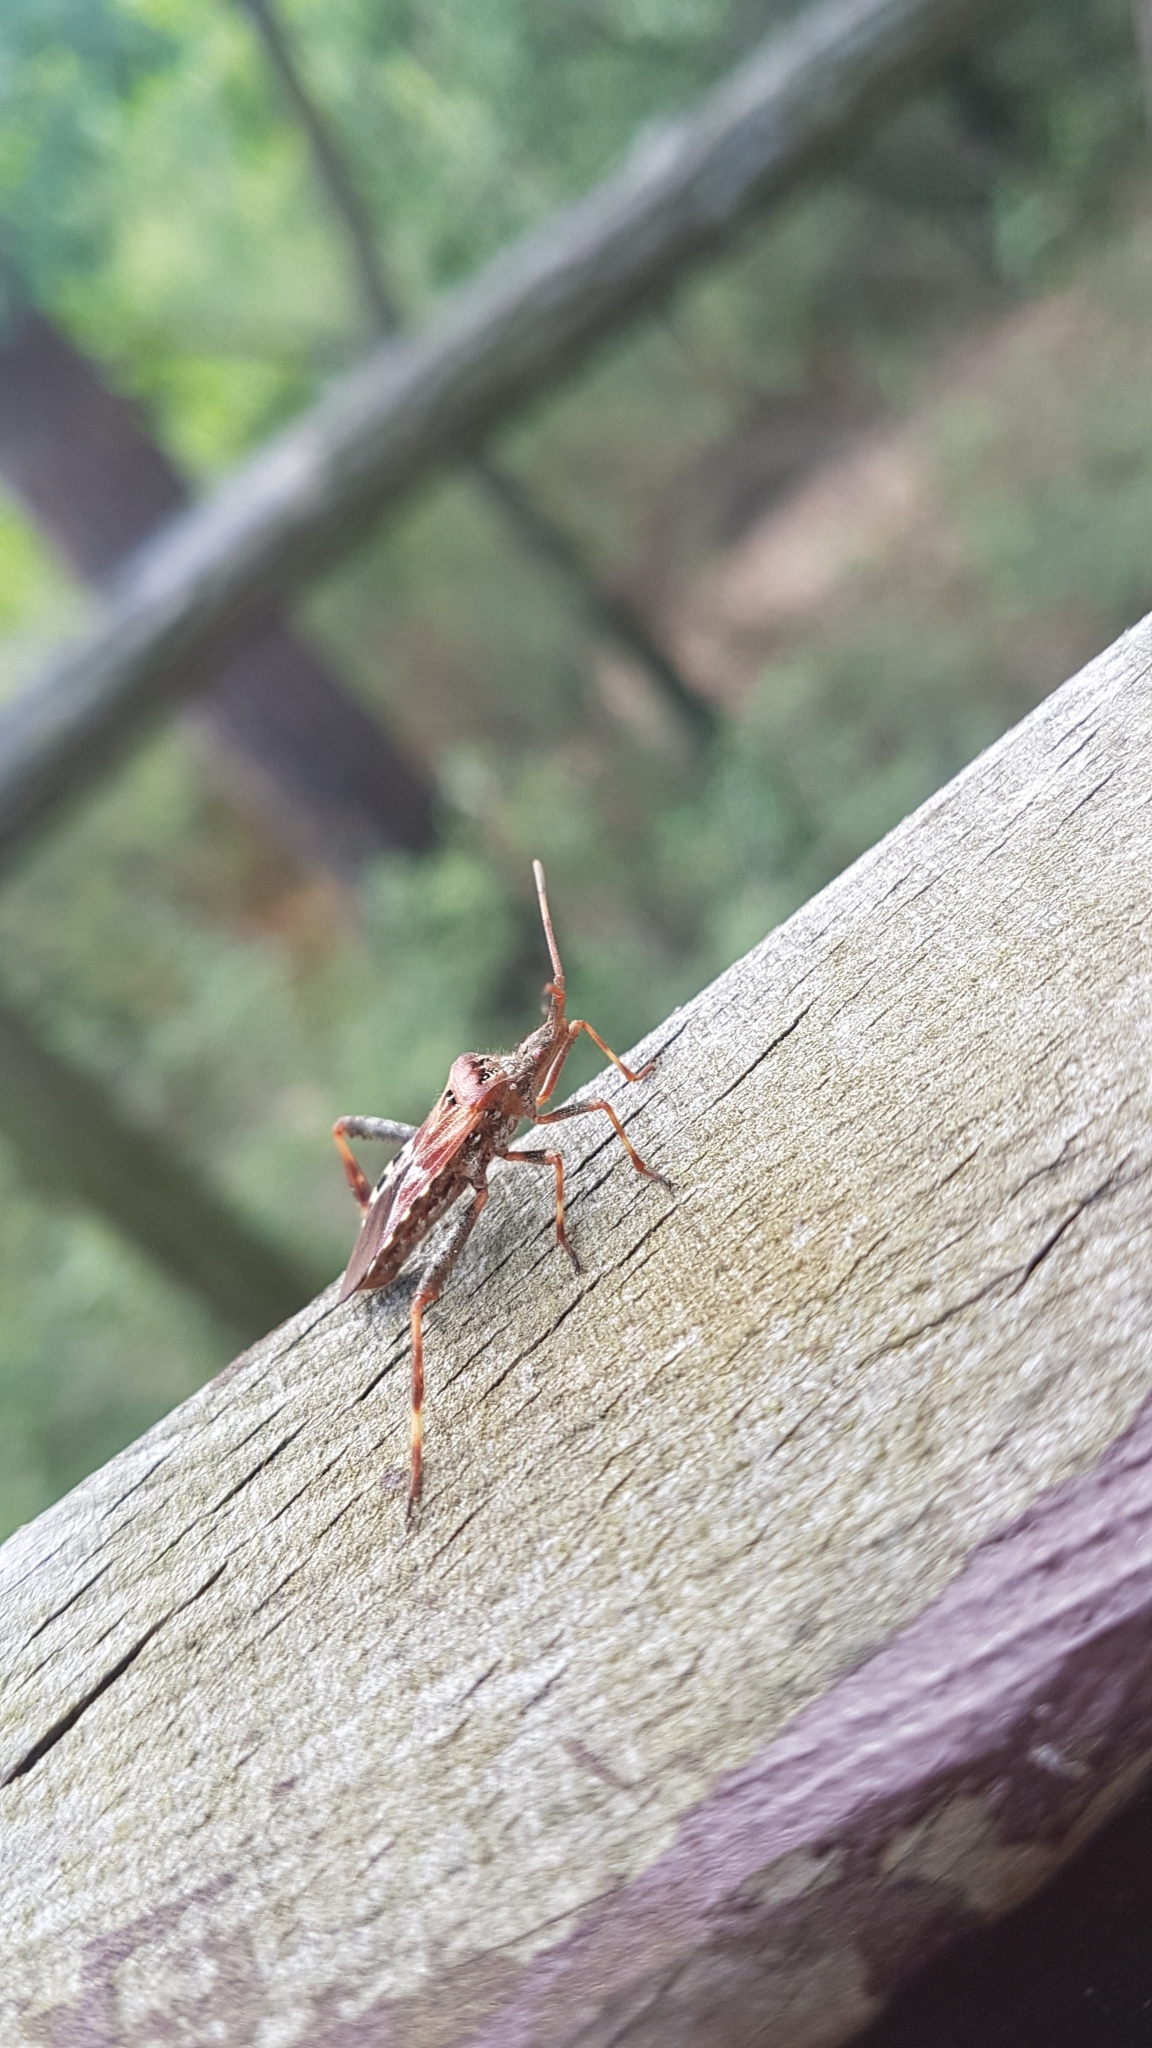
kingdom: Animalia
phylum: Arthropoda
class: Insecta
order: Hemiptera
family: Coreidae
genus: Leptoglossus
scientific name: Leptoglossus occidentalis
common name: Western conifer-seed bug
